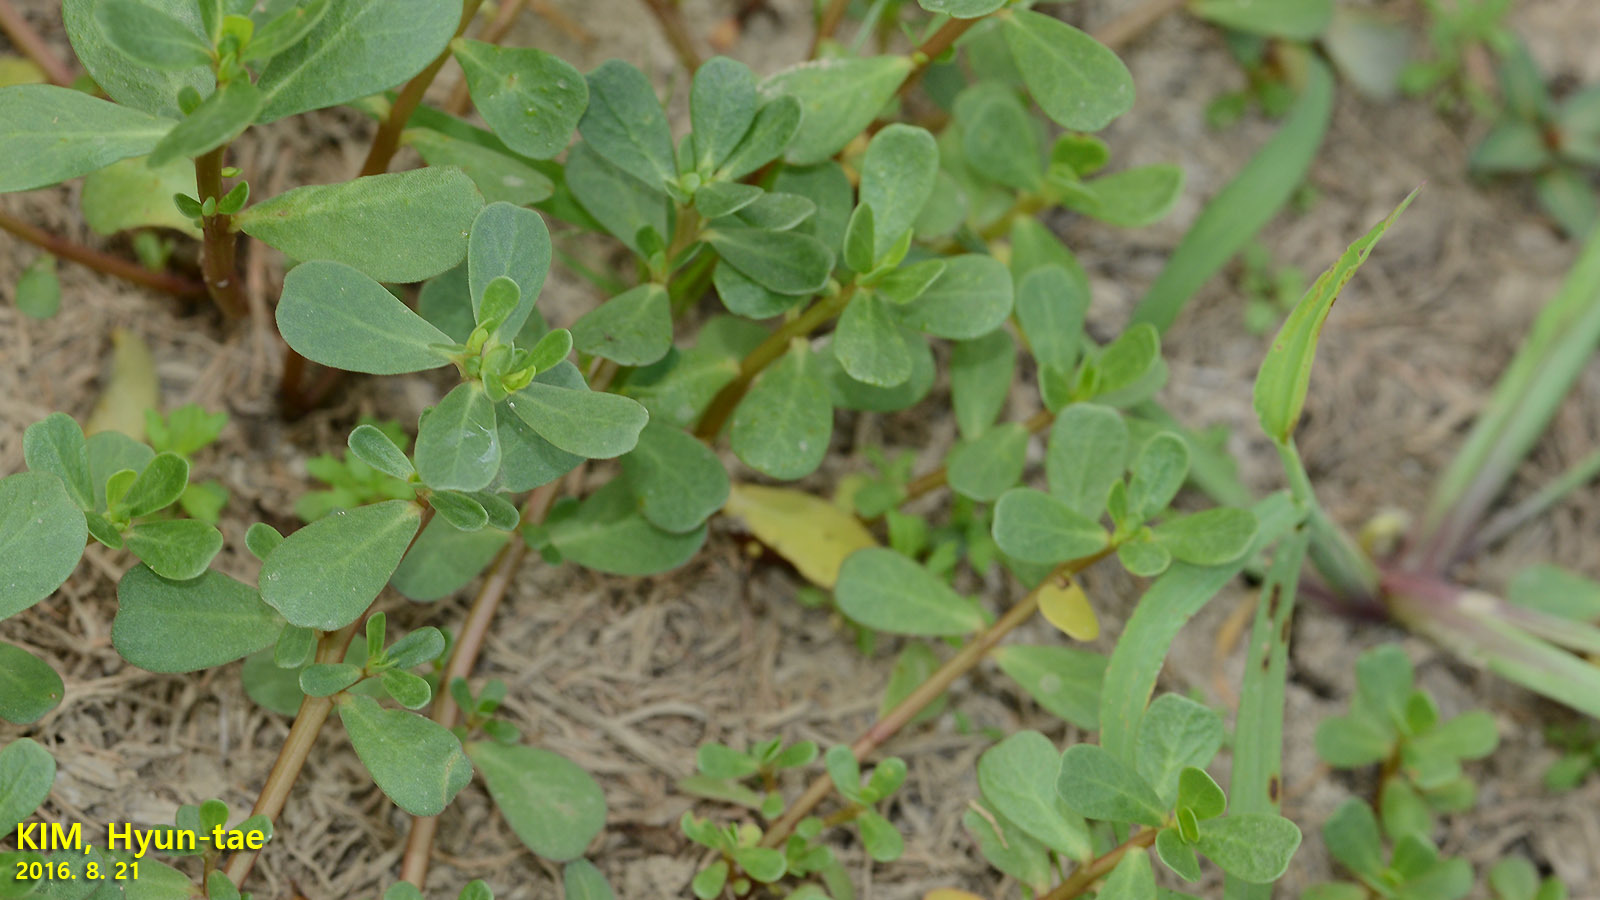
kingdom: Plantae
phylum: Tracheophyta
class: Magnoliopsida
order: Caryophyllales
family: Portulacaceae
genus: Portulaca
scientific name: Portulaca oleracea
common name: Common purslane
